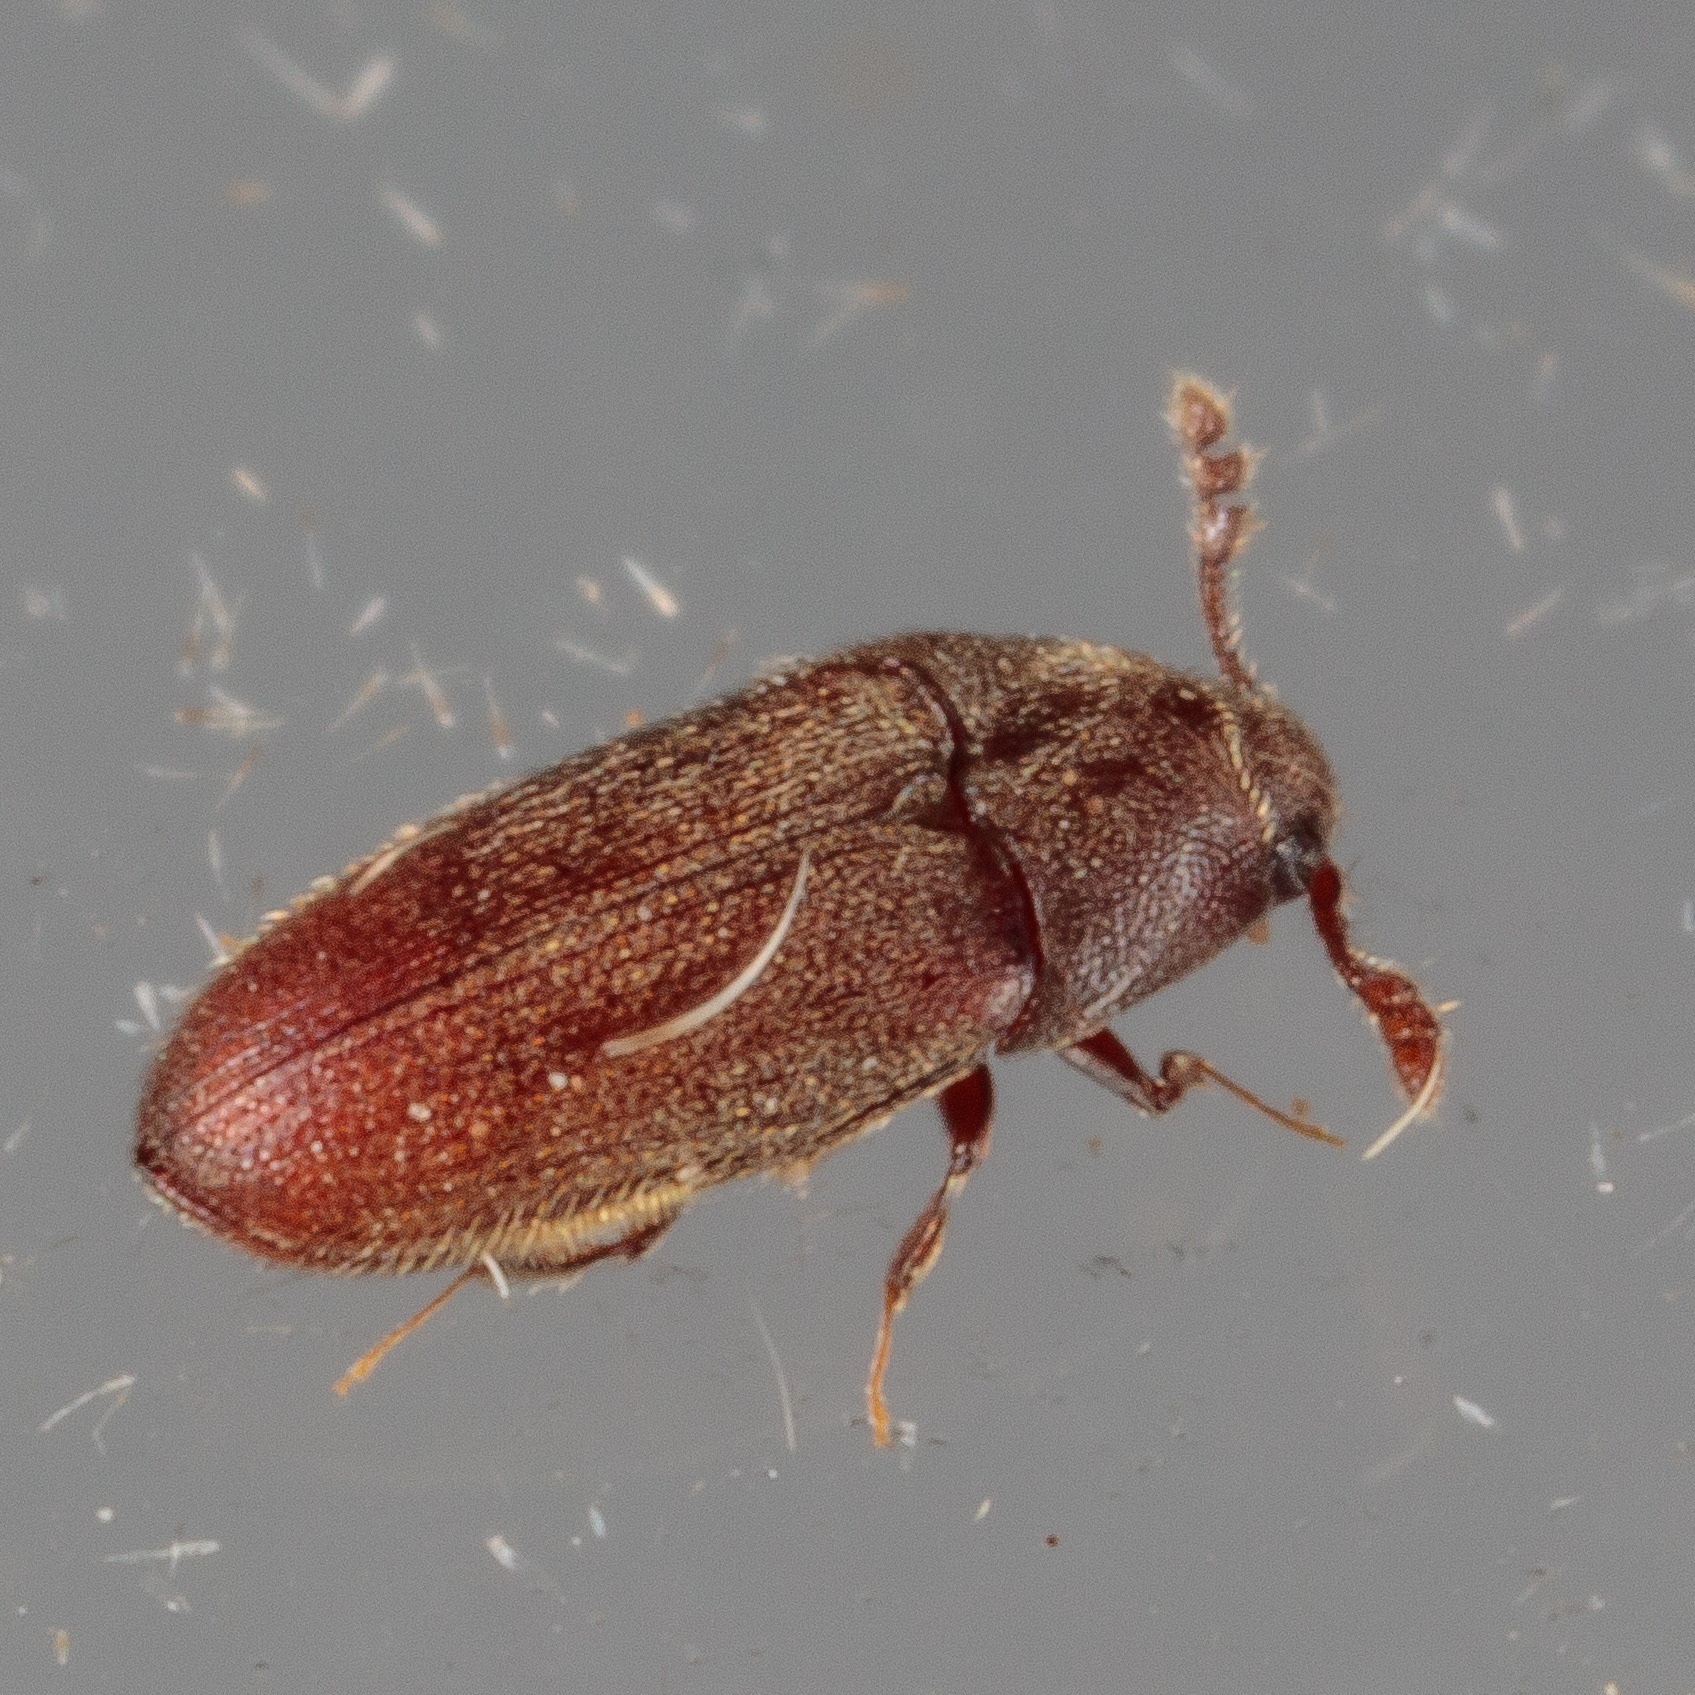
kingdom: Animalia
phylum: Arthropoda
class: Insecta
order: Coleoptera
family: Throscidae
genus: Trixagus
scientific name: Trixagus chevrolati
